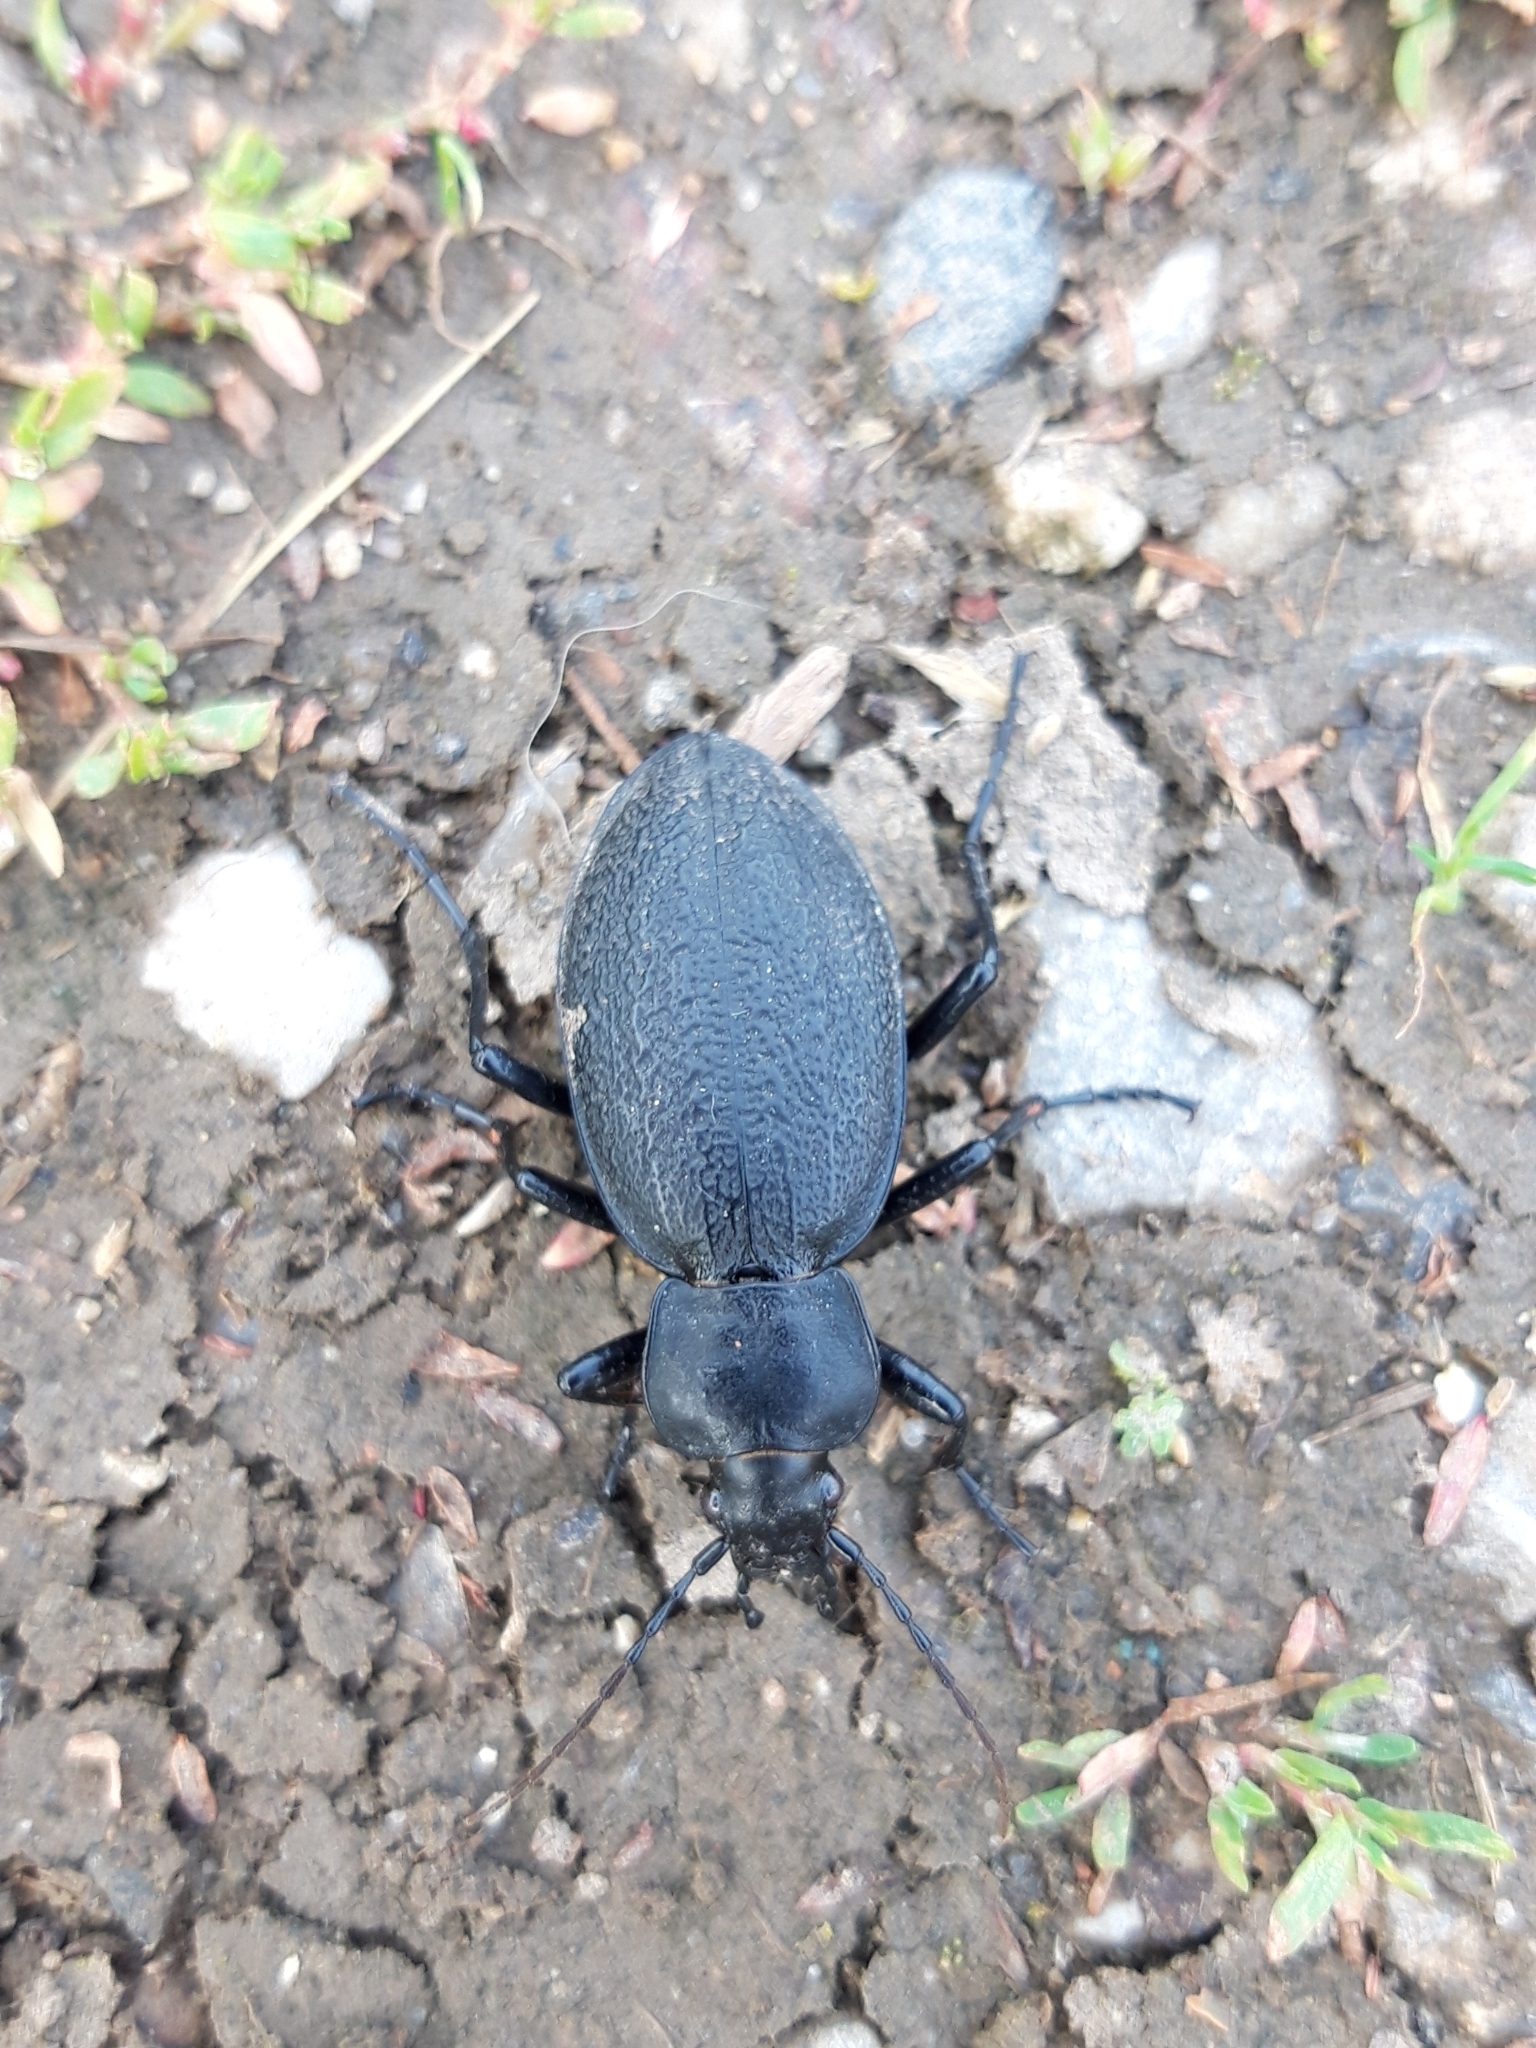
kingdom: Animalia
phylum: Arthropoda
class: Insecta
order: Coleoptera
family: Carabidae
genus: Carabus
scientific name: Carabus coriaceus
